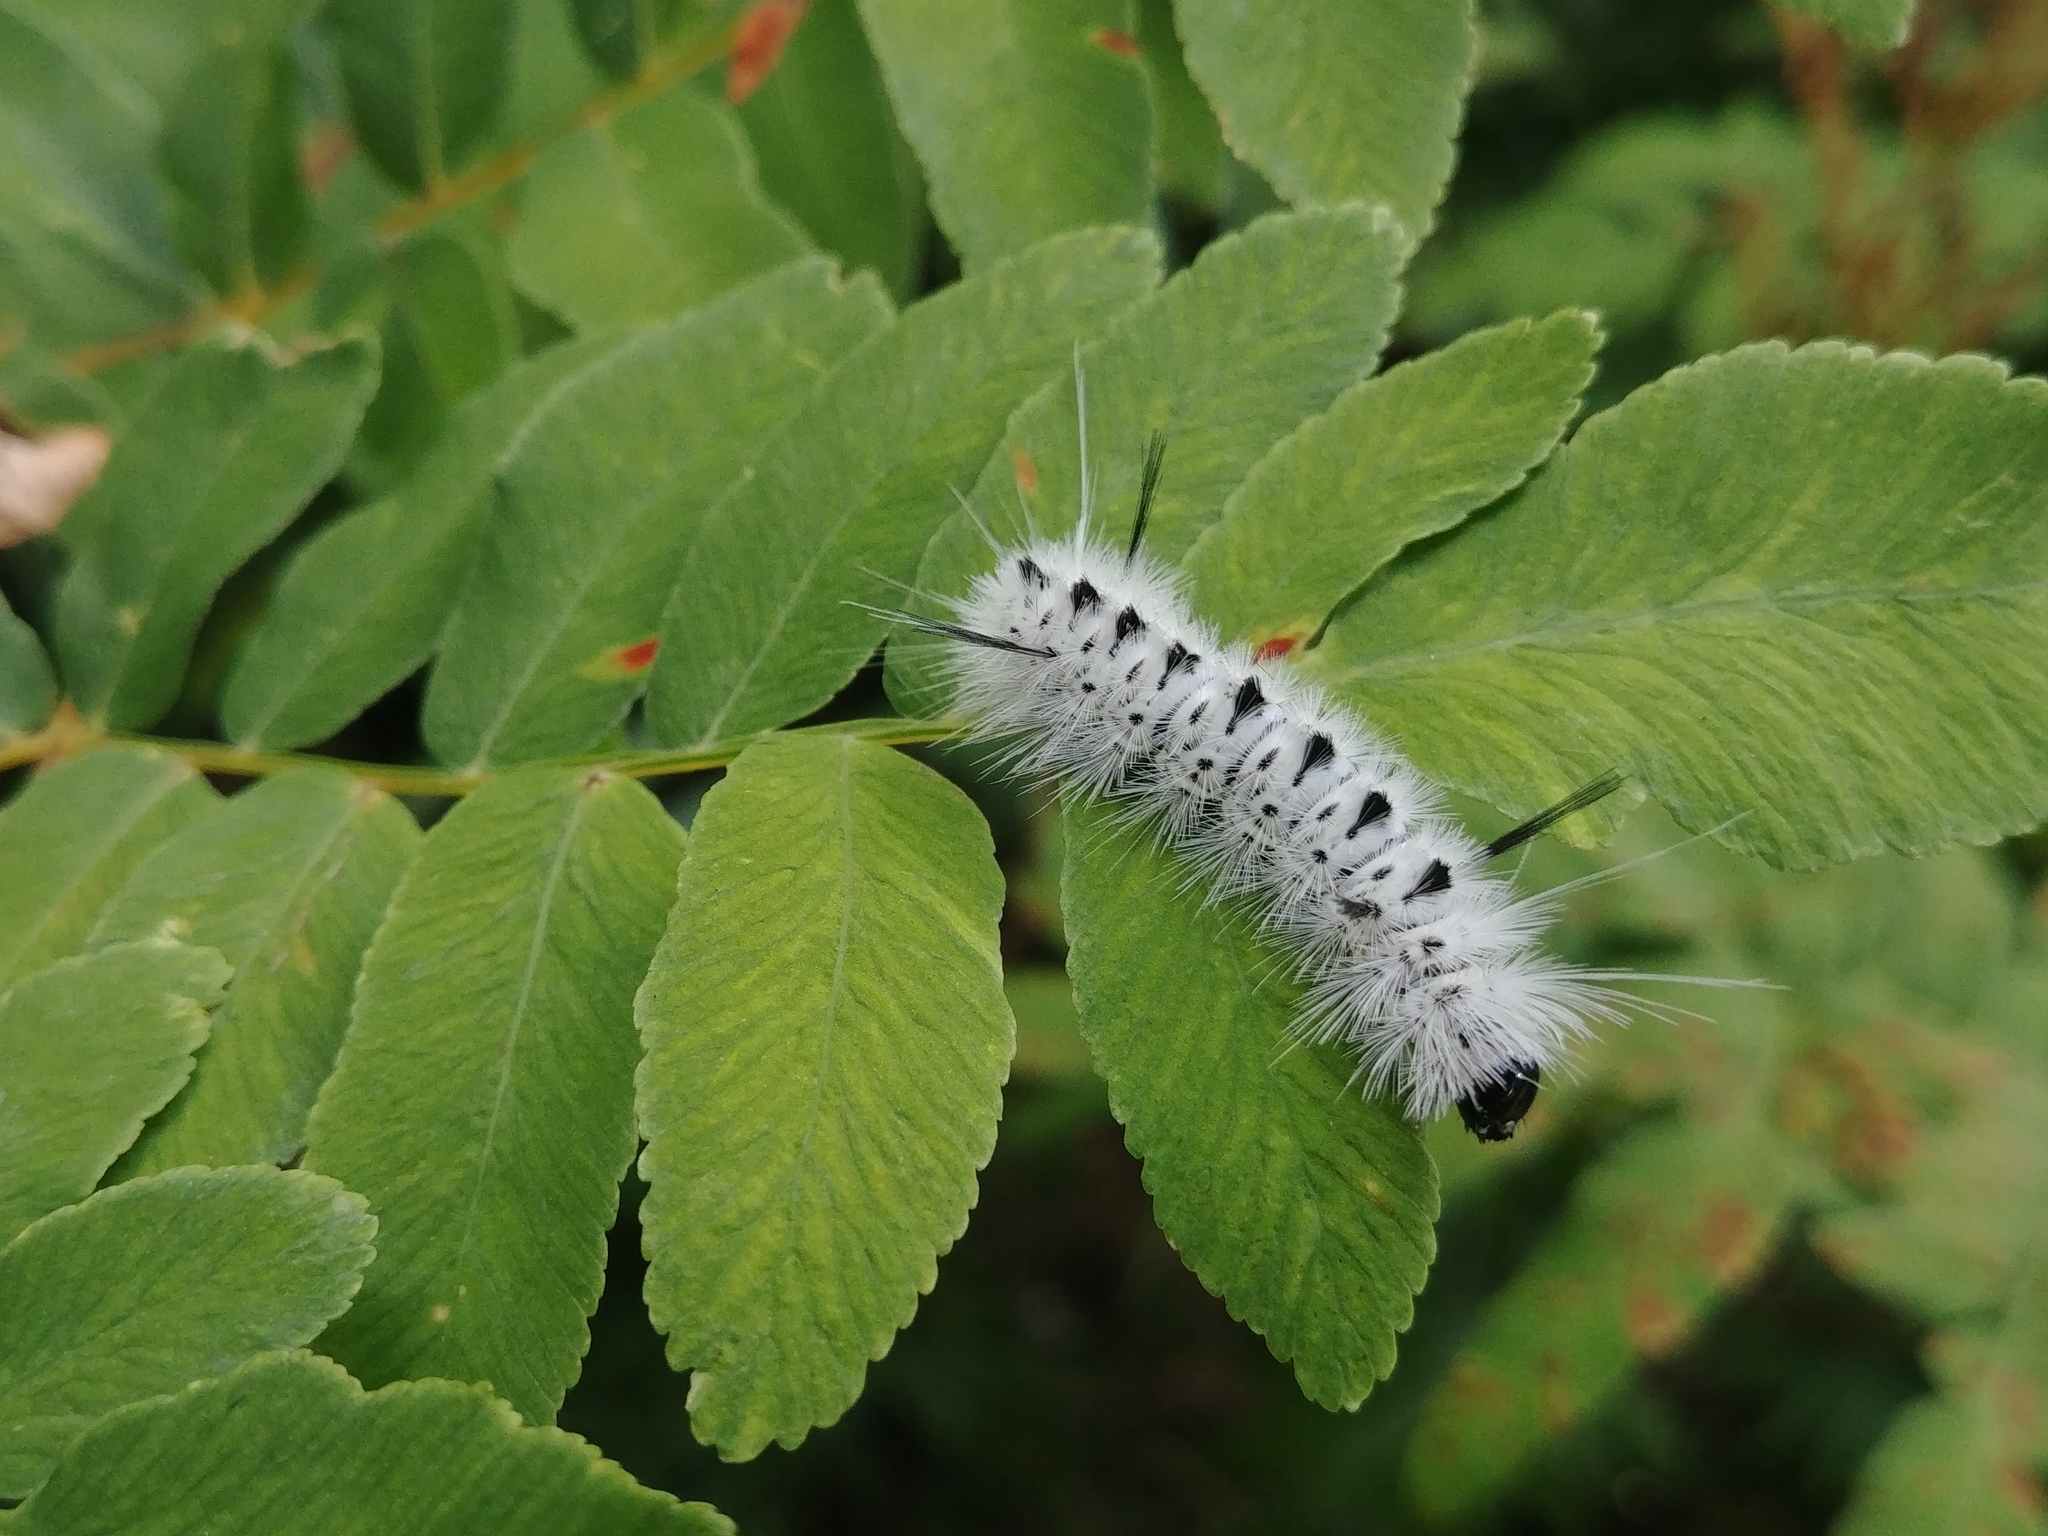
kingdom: Animalia
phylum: Arthropoda
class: Insecta
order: Lepidoptera
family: Erebidae
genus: Lophocampa
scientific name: Lophocampa caryae
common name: Hickory tussock moth
